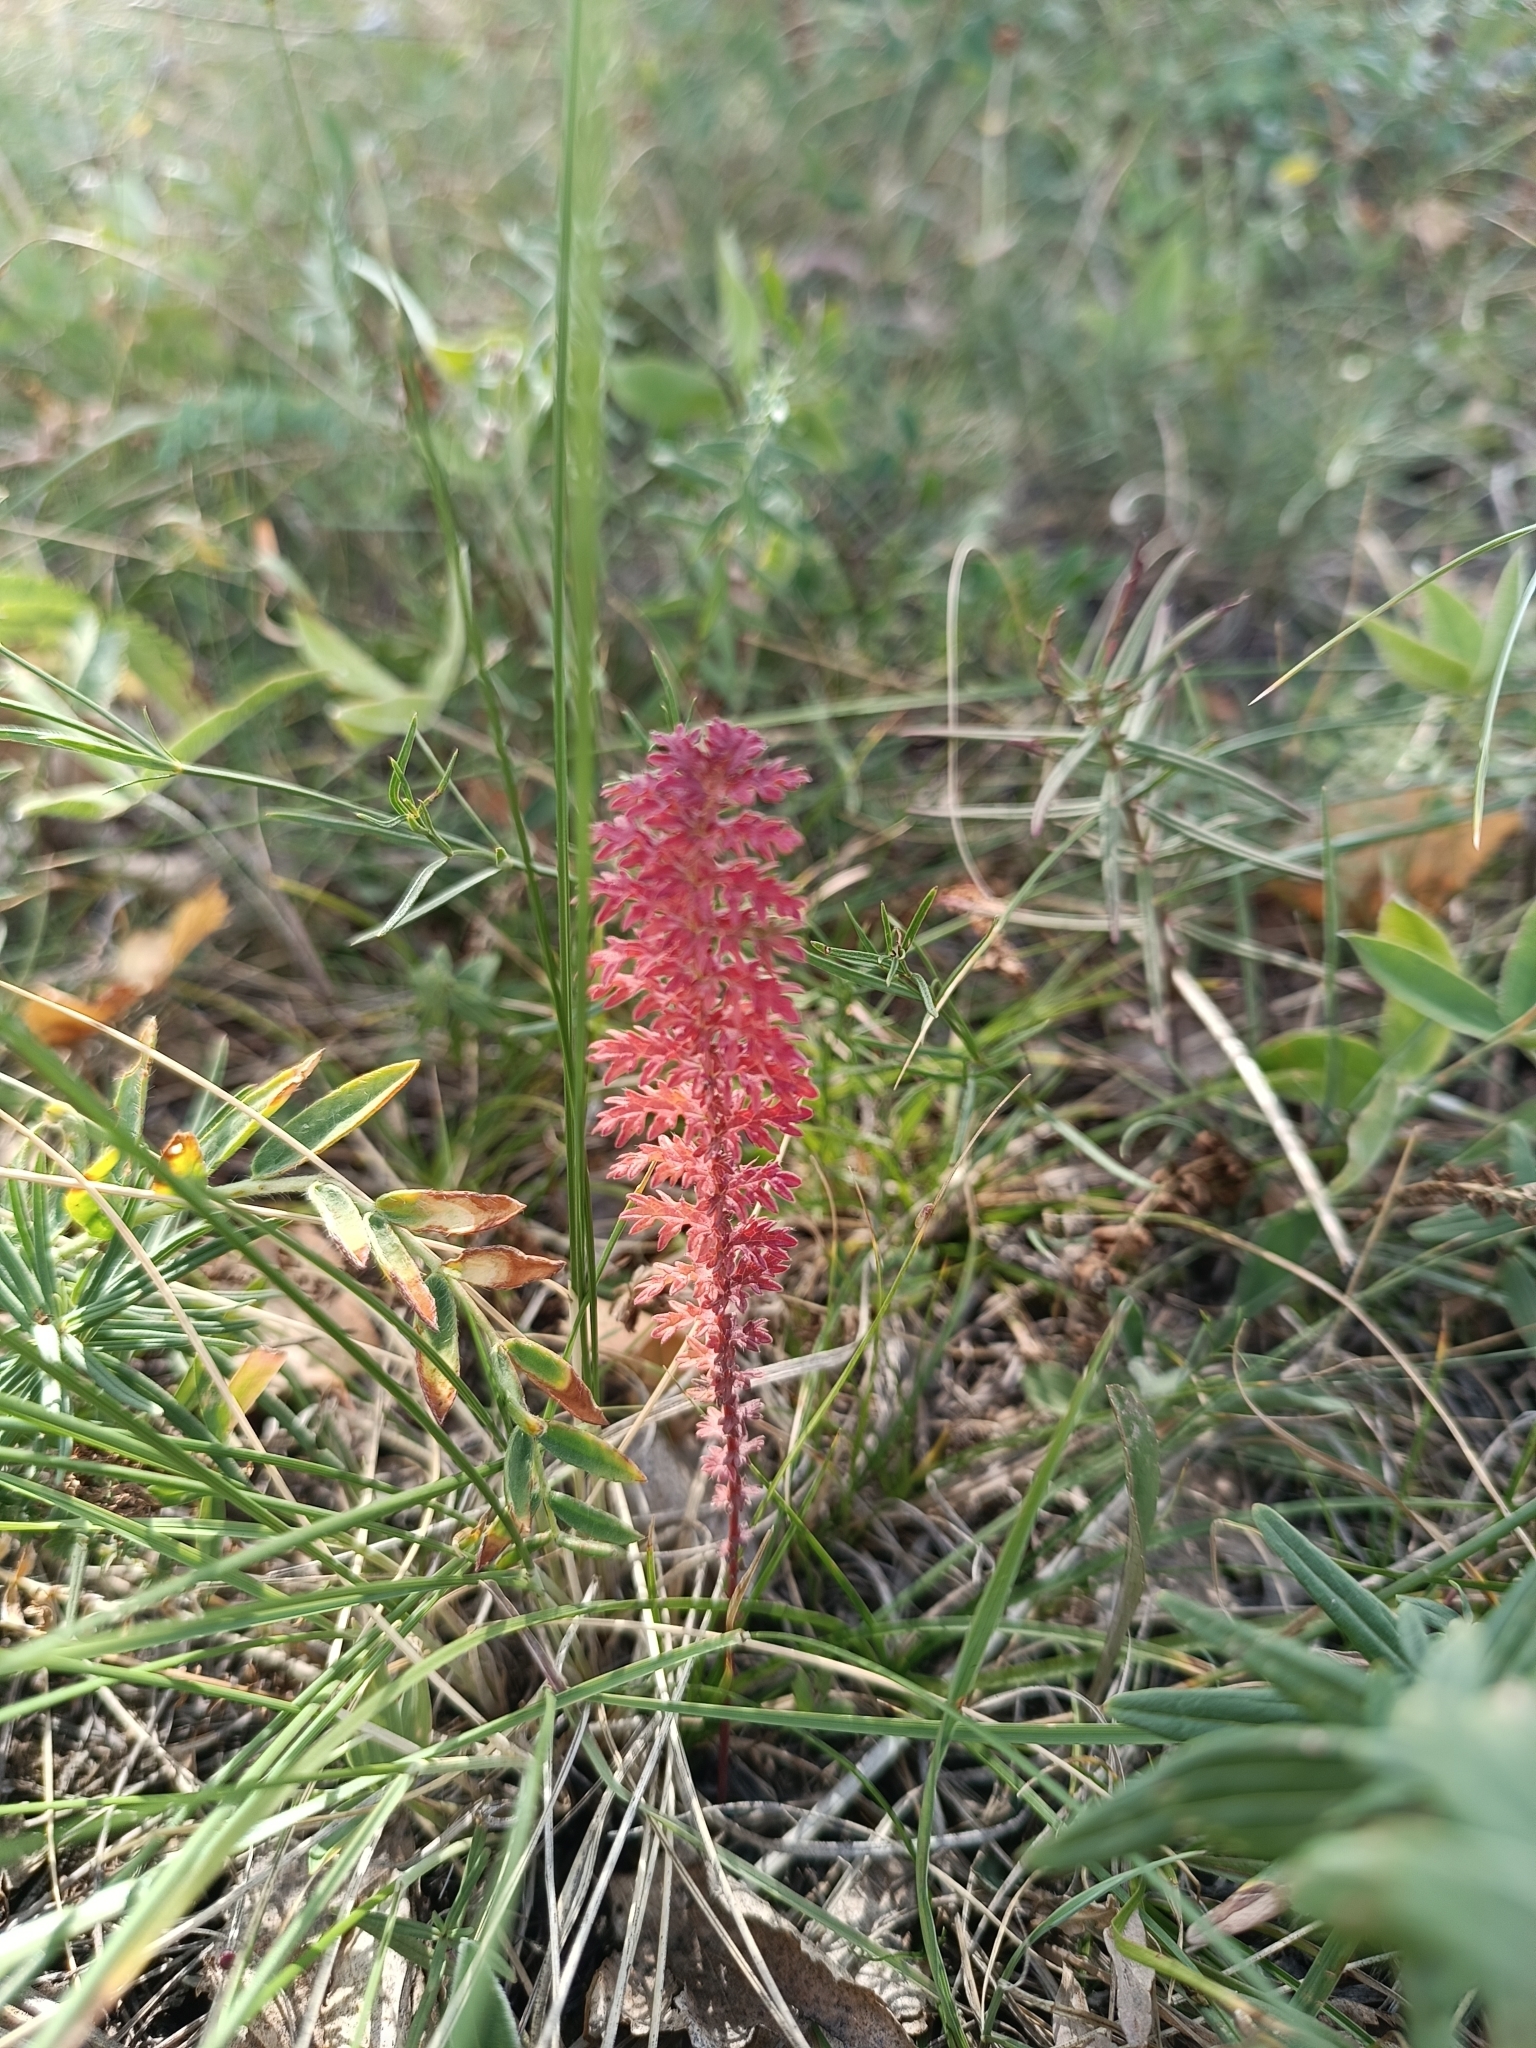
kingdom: Plantae
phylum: Tracheophyta
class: Magnoliopsida
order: Rosales
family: Rosaceae
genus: Filipendula
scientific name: Filipendula vulgaris
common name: Dropwort
